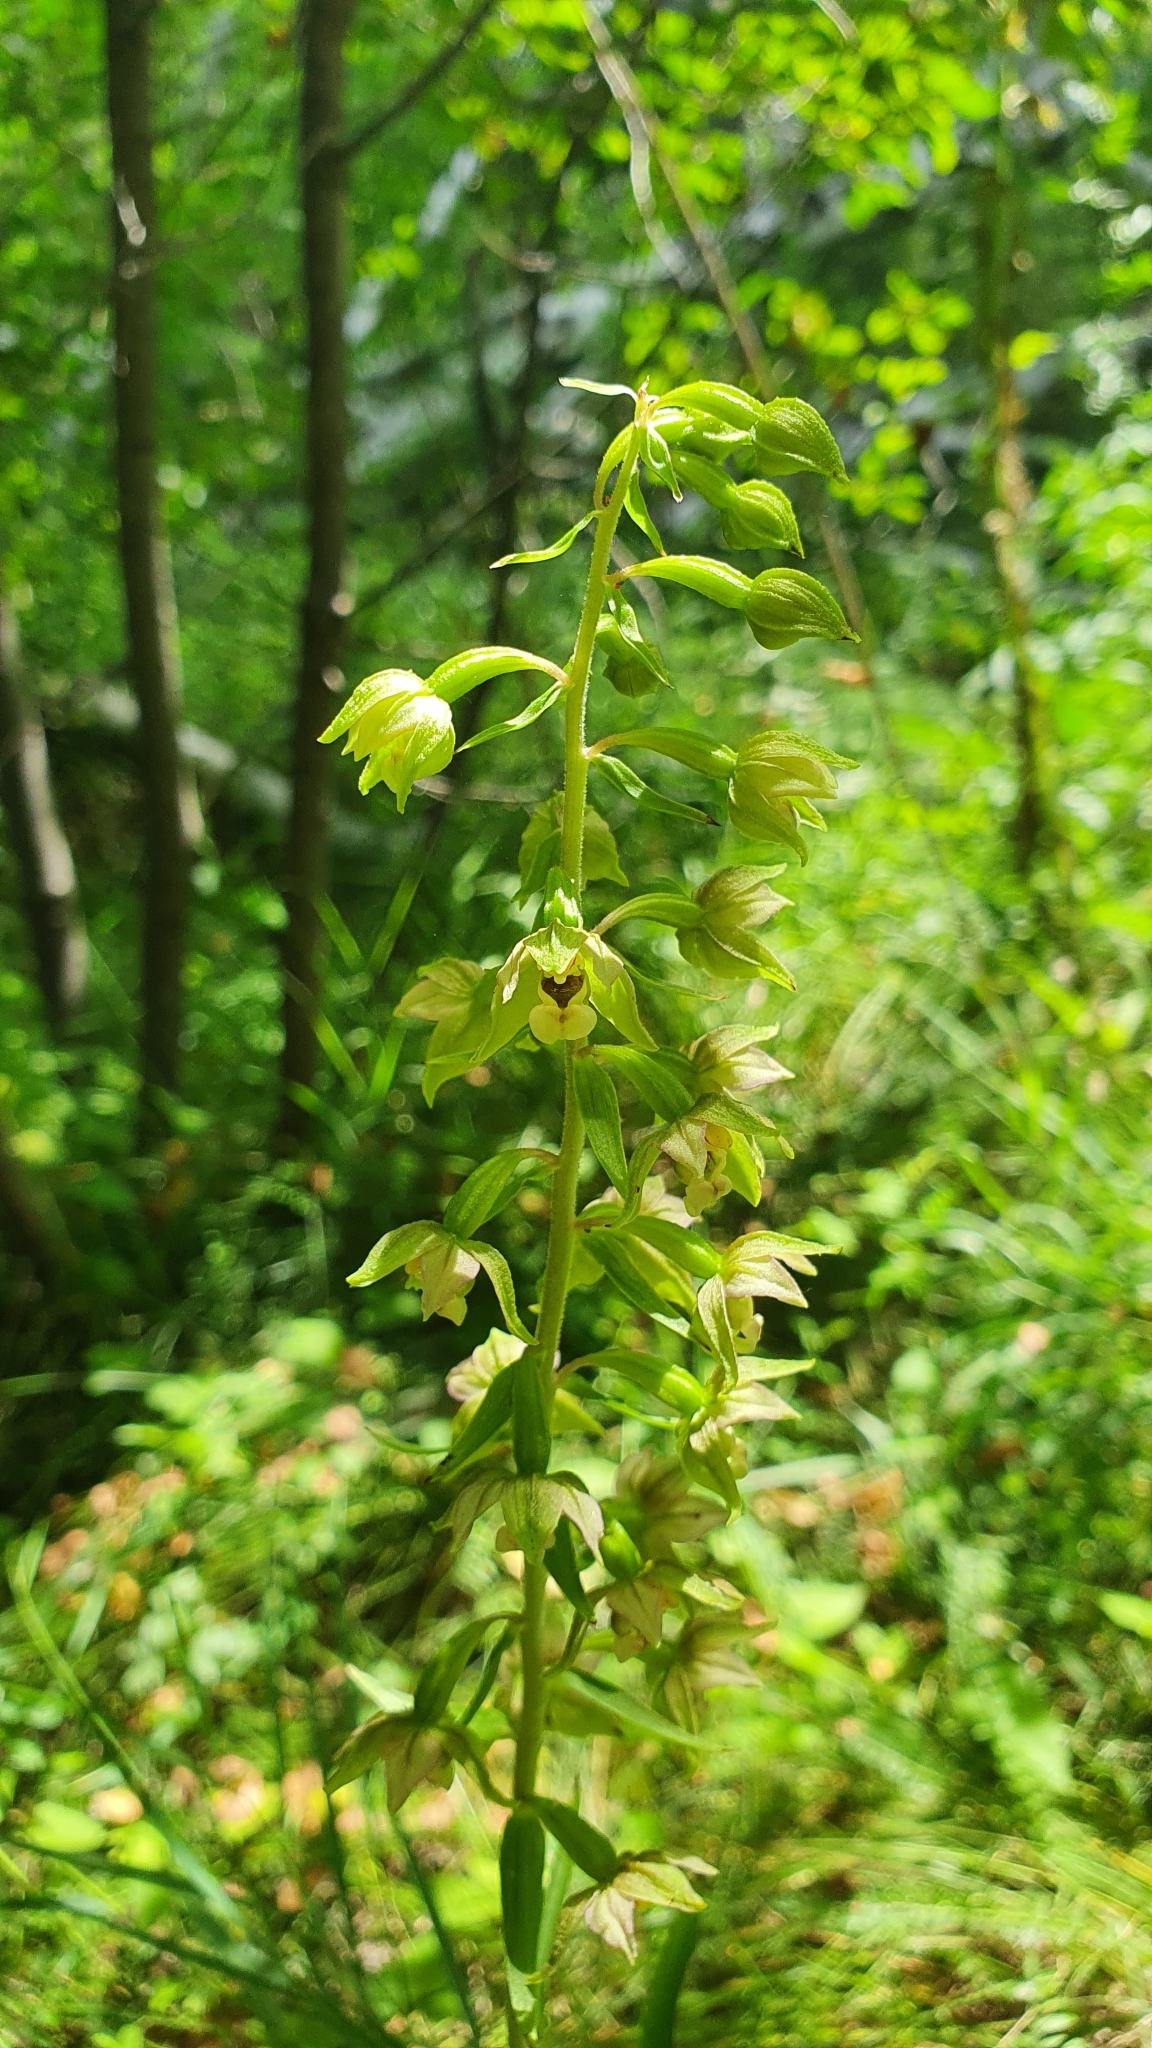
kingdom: Plantae
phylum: Tracheophyta
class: Liliopsida
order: Asparagales
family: Orchidaceae
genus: Epipactis
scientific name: Epipactis helleborine
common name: Broad-leaved helleborine
